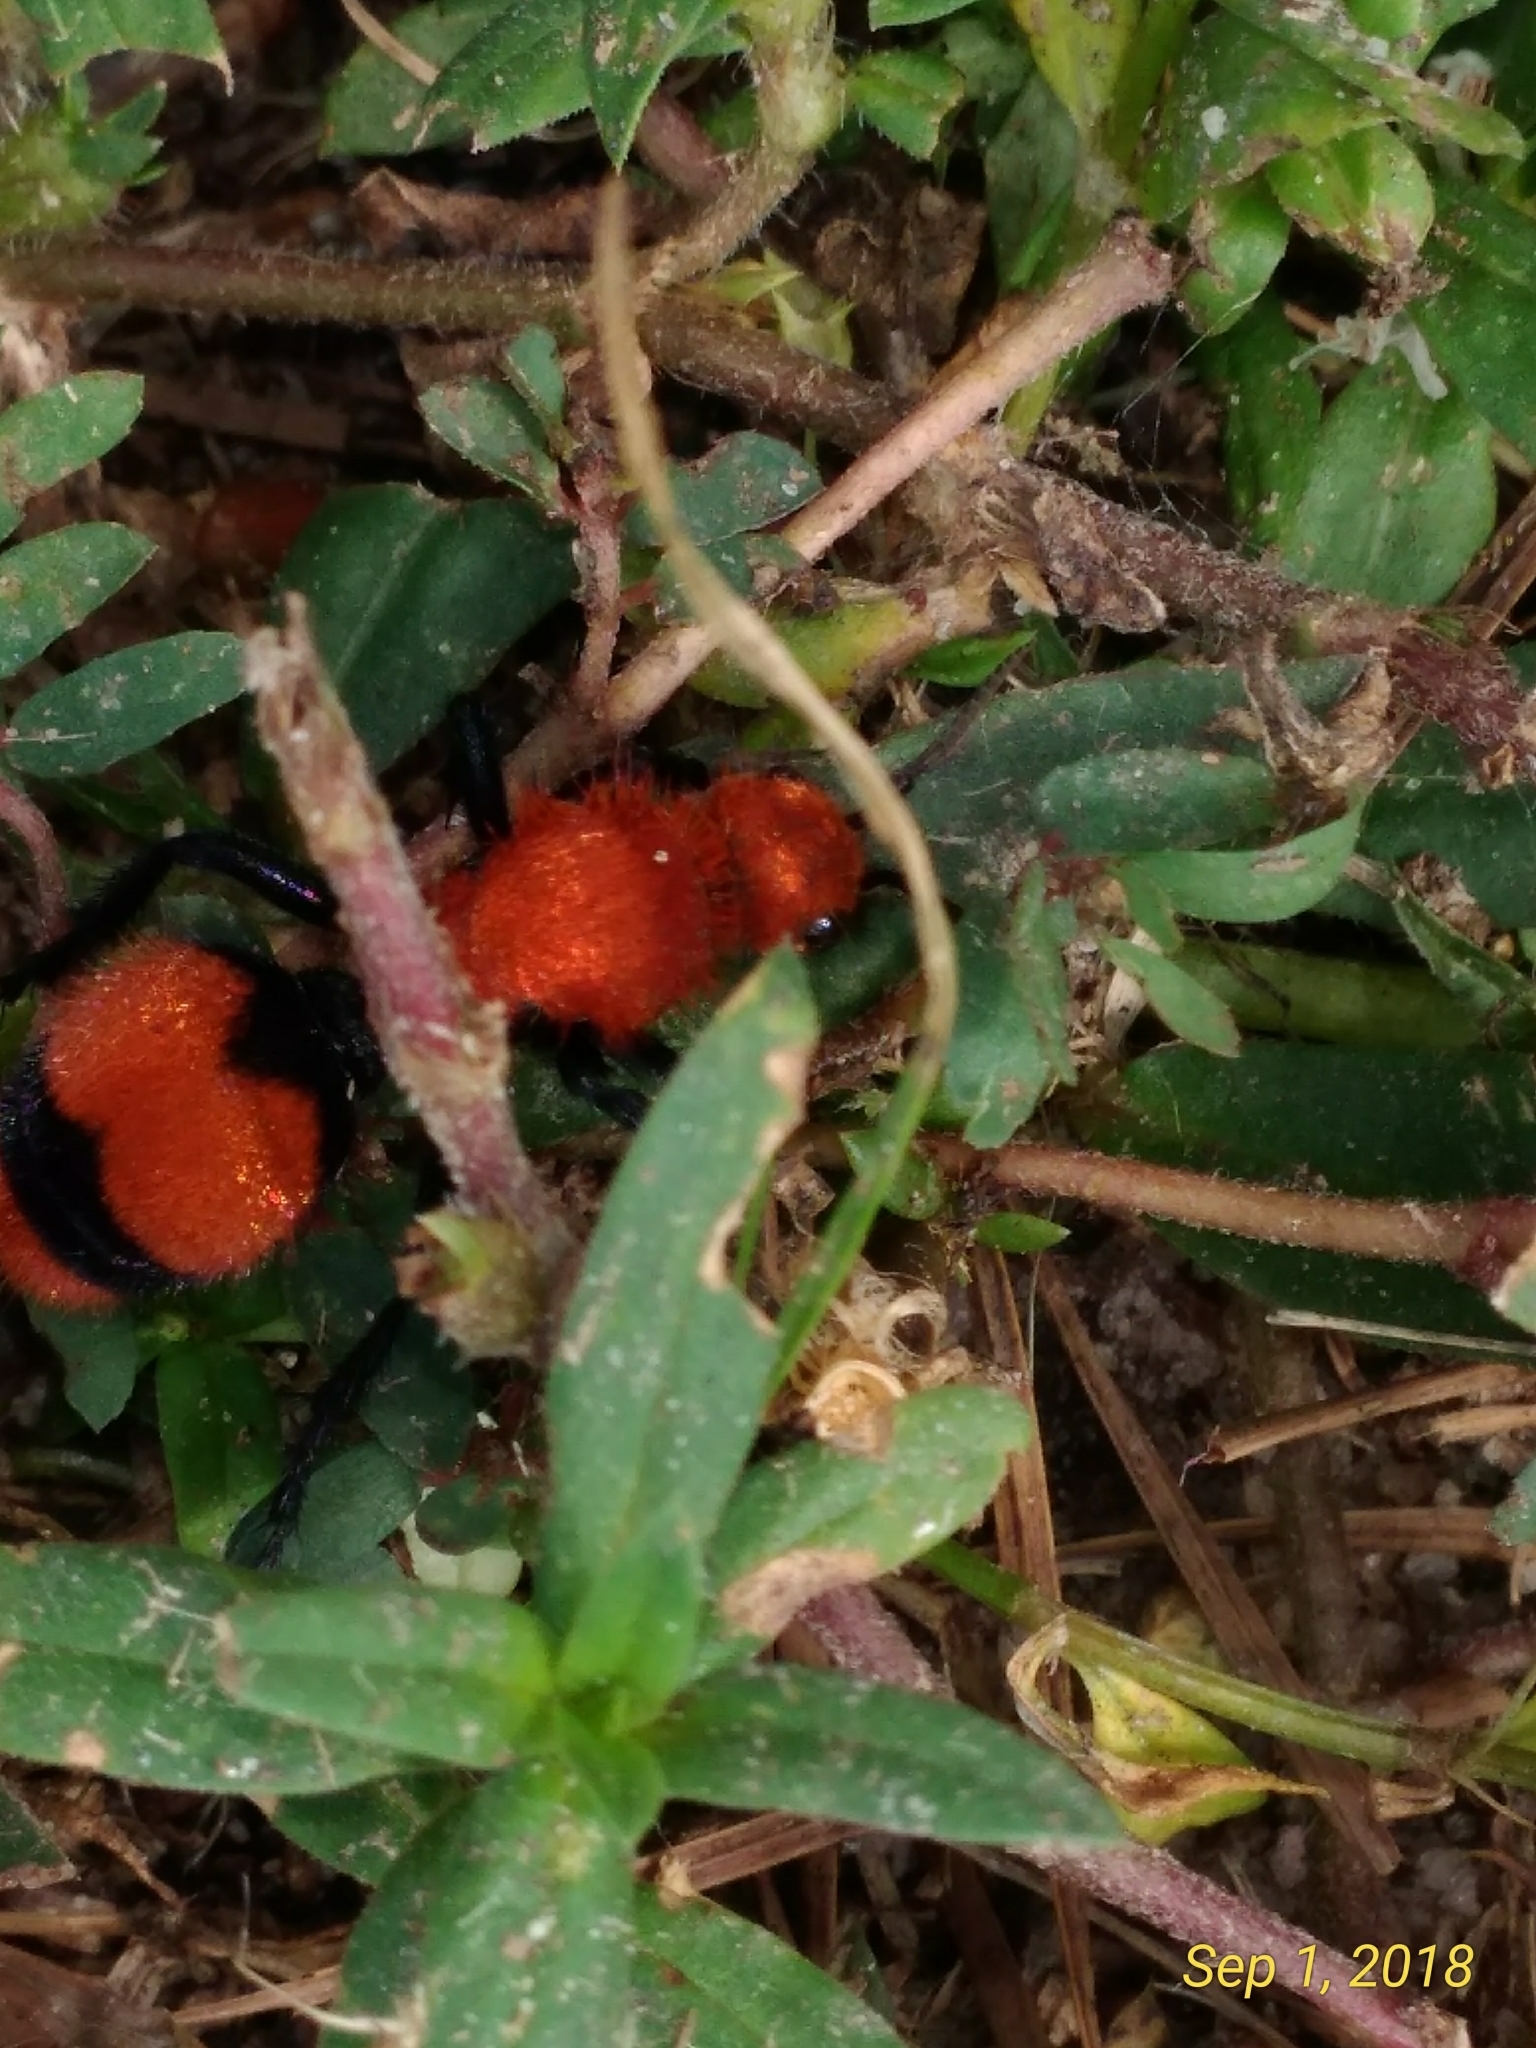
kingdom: Animalia
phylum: Arthropoda
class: Insecta
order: Hymenoptera
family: Mutillidae
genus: Dasymutilla
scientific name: Dasymutilla occidentalis
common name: Common eastern velvet ant
